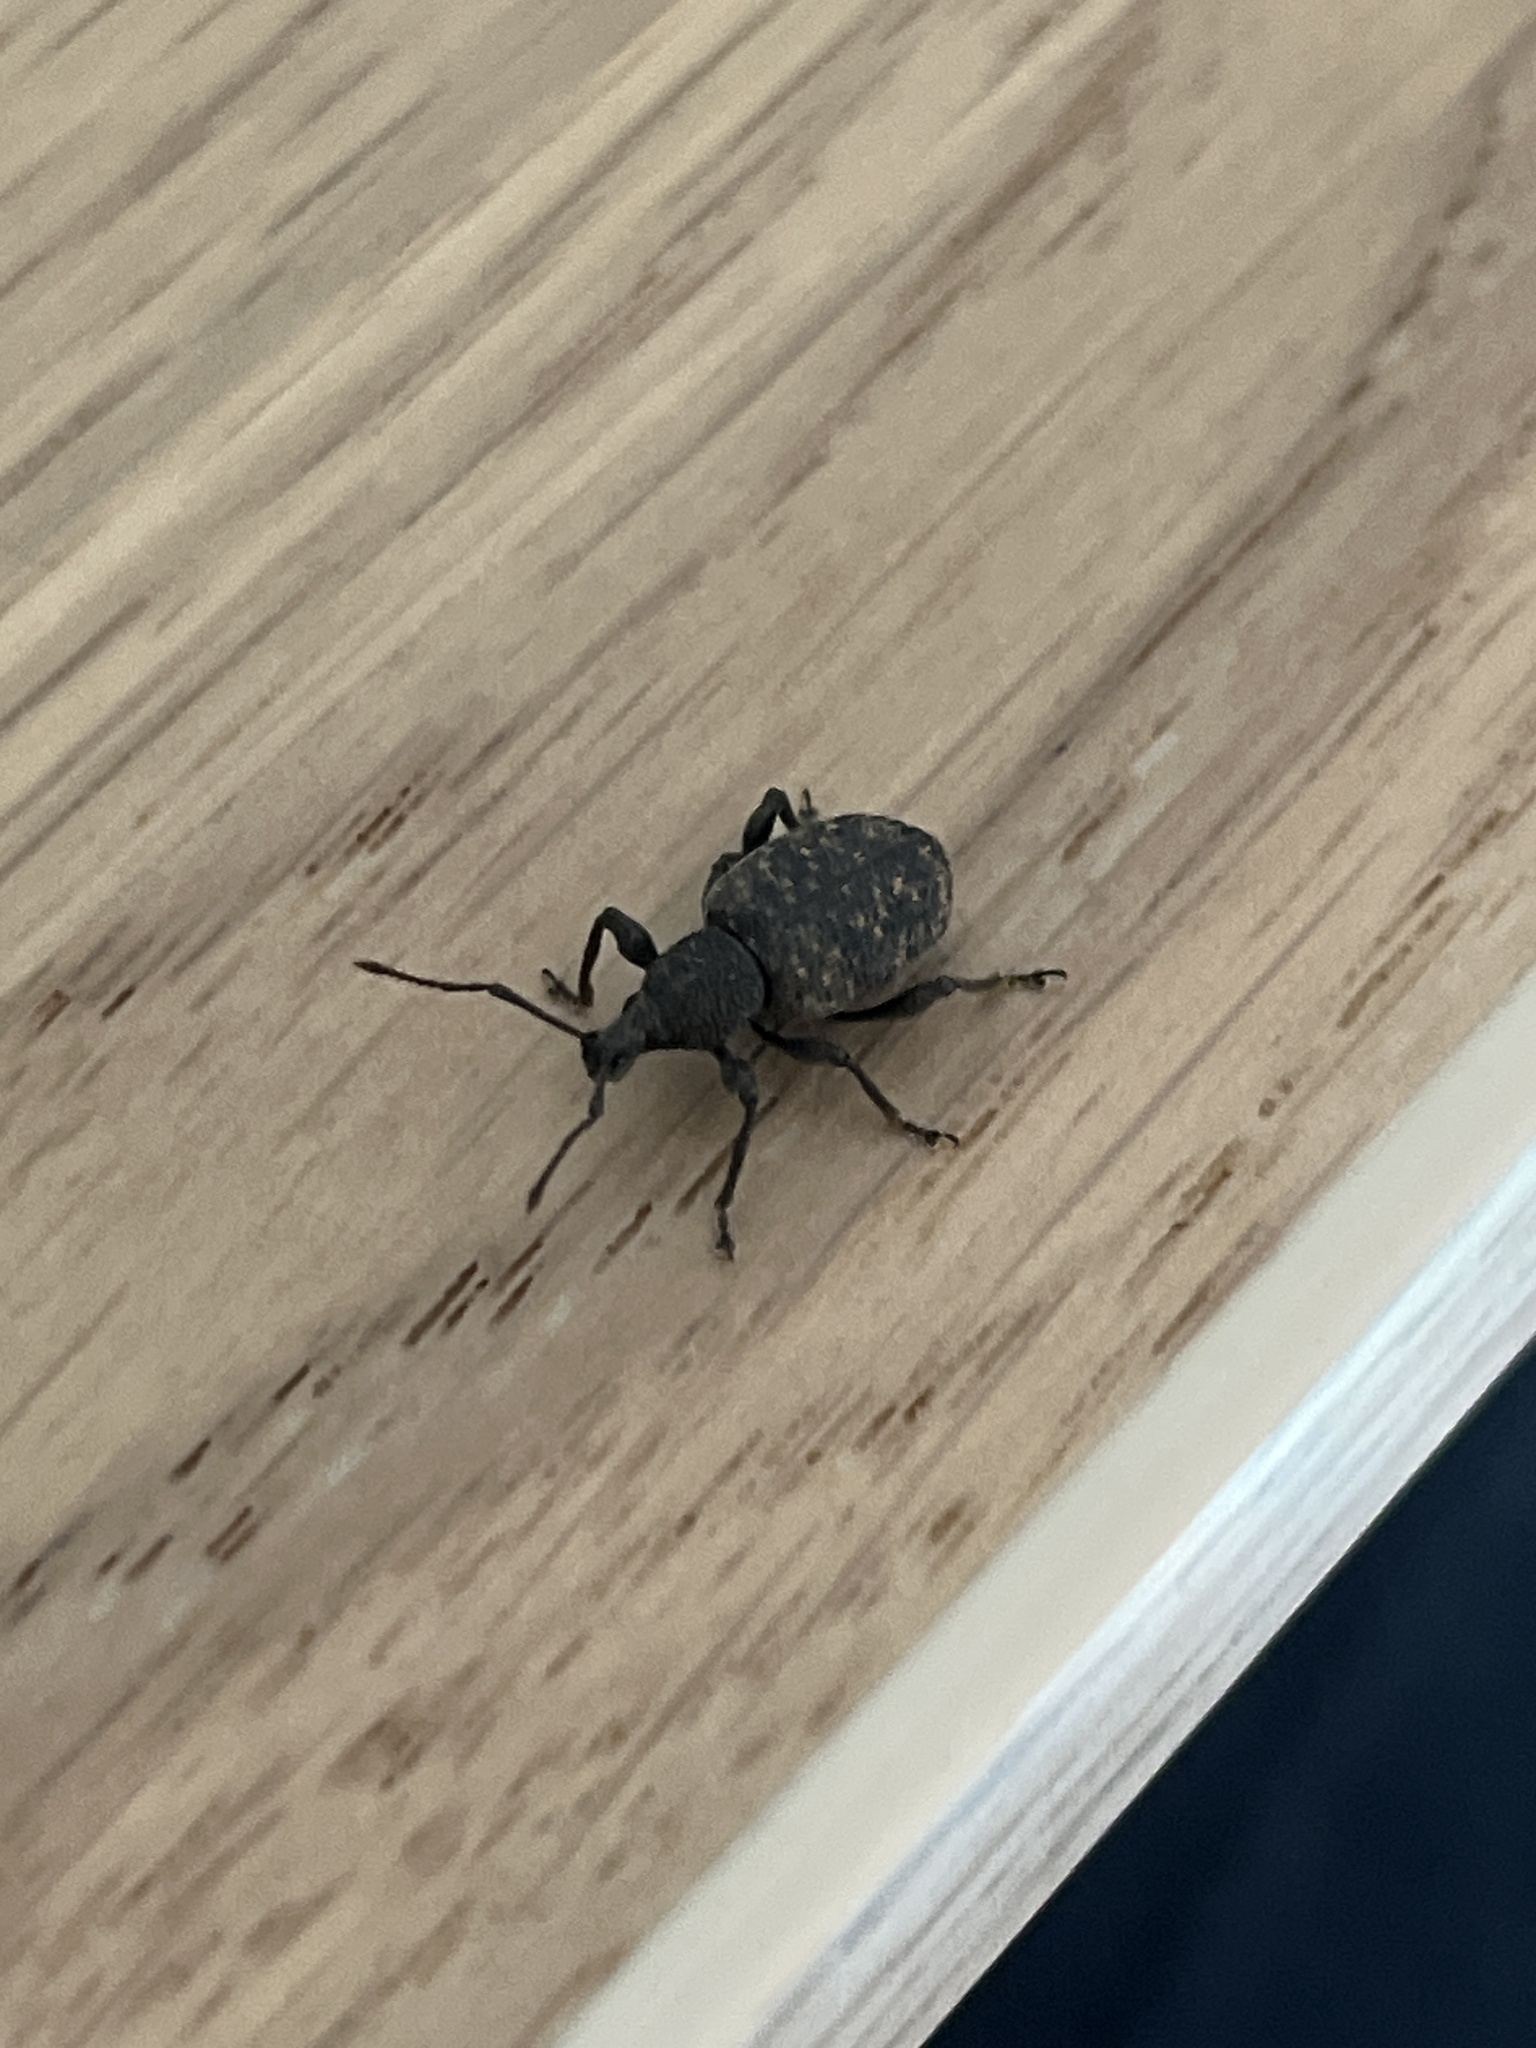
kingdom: Animalia
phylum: Arthropoda
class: Insecta
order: Coleoptera
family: Curculionidae
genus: Otiorhynchus
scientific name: Otiorhynchus sulcatus
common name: Black vine weevil
